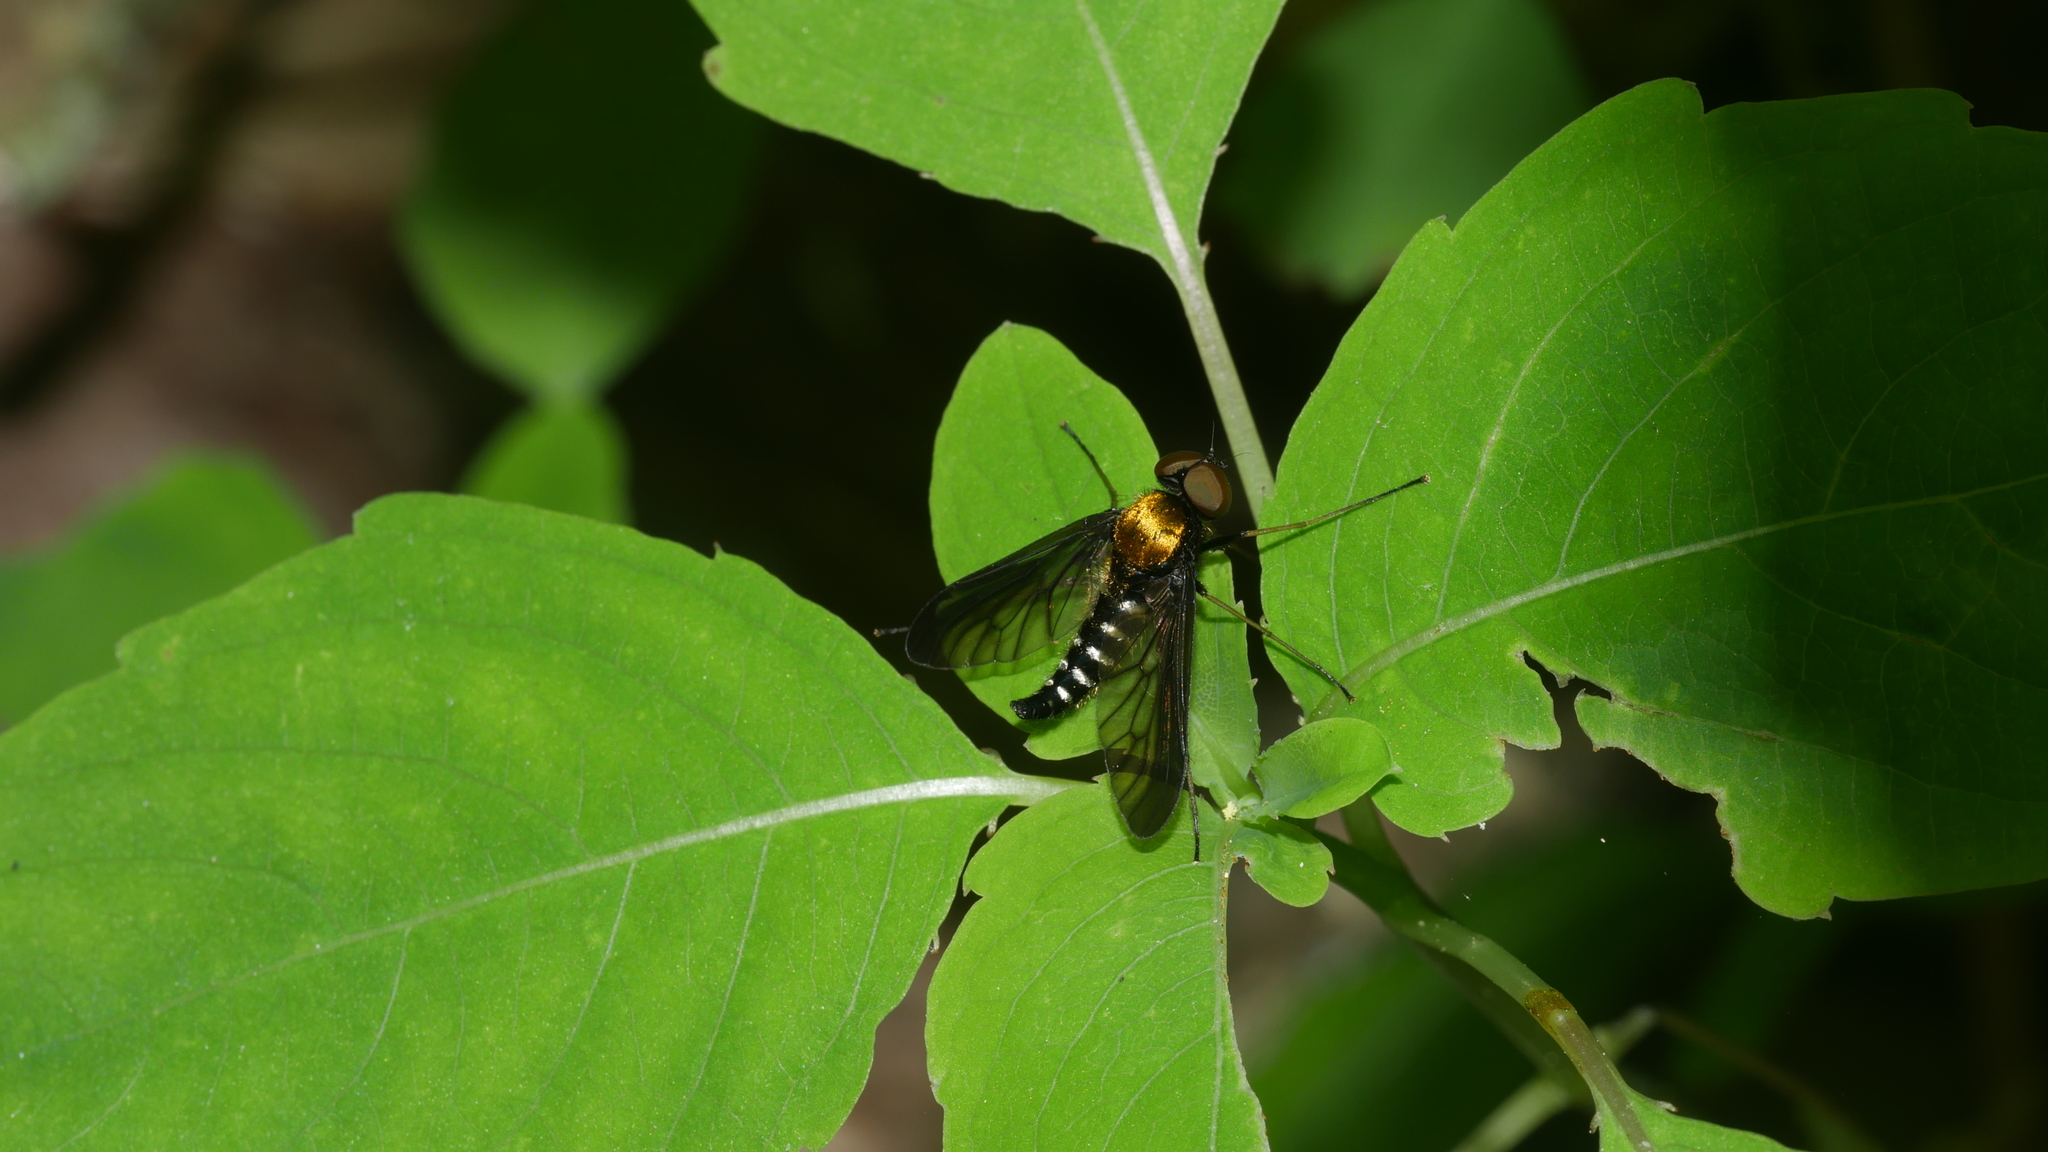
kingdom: Animalia
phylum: Arthropoda
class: Insecta
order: Diptera
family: Rhagionidae
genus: Chrysopilus
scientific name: Chrysopilus thoracicus
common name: Golden-backed snipe fly
